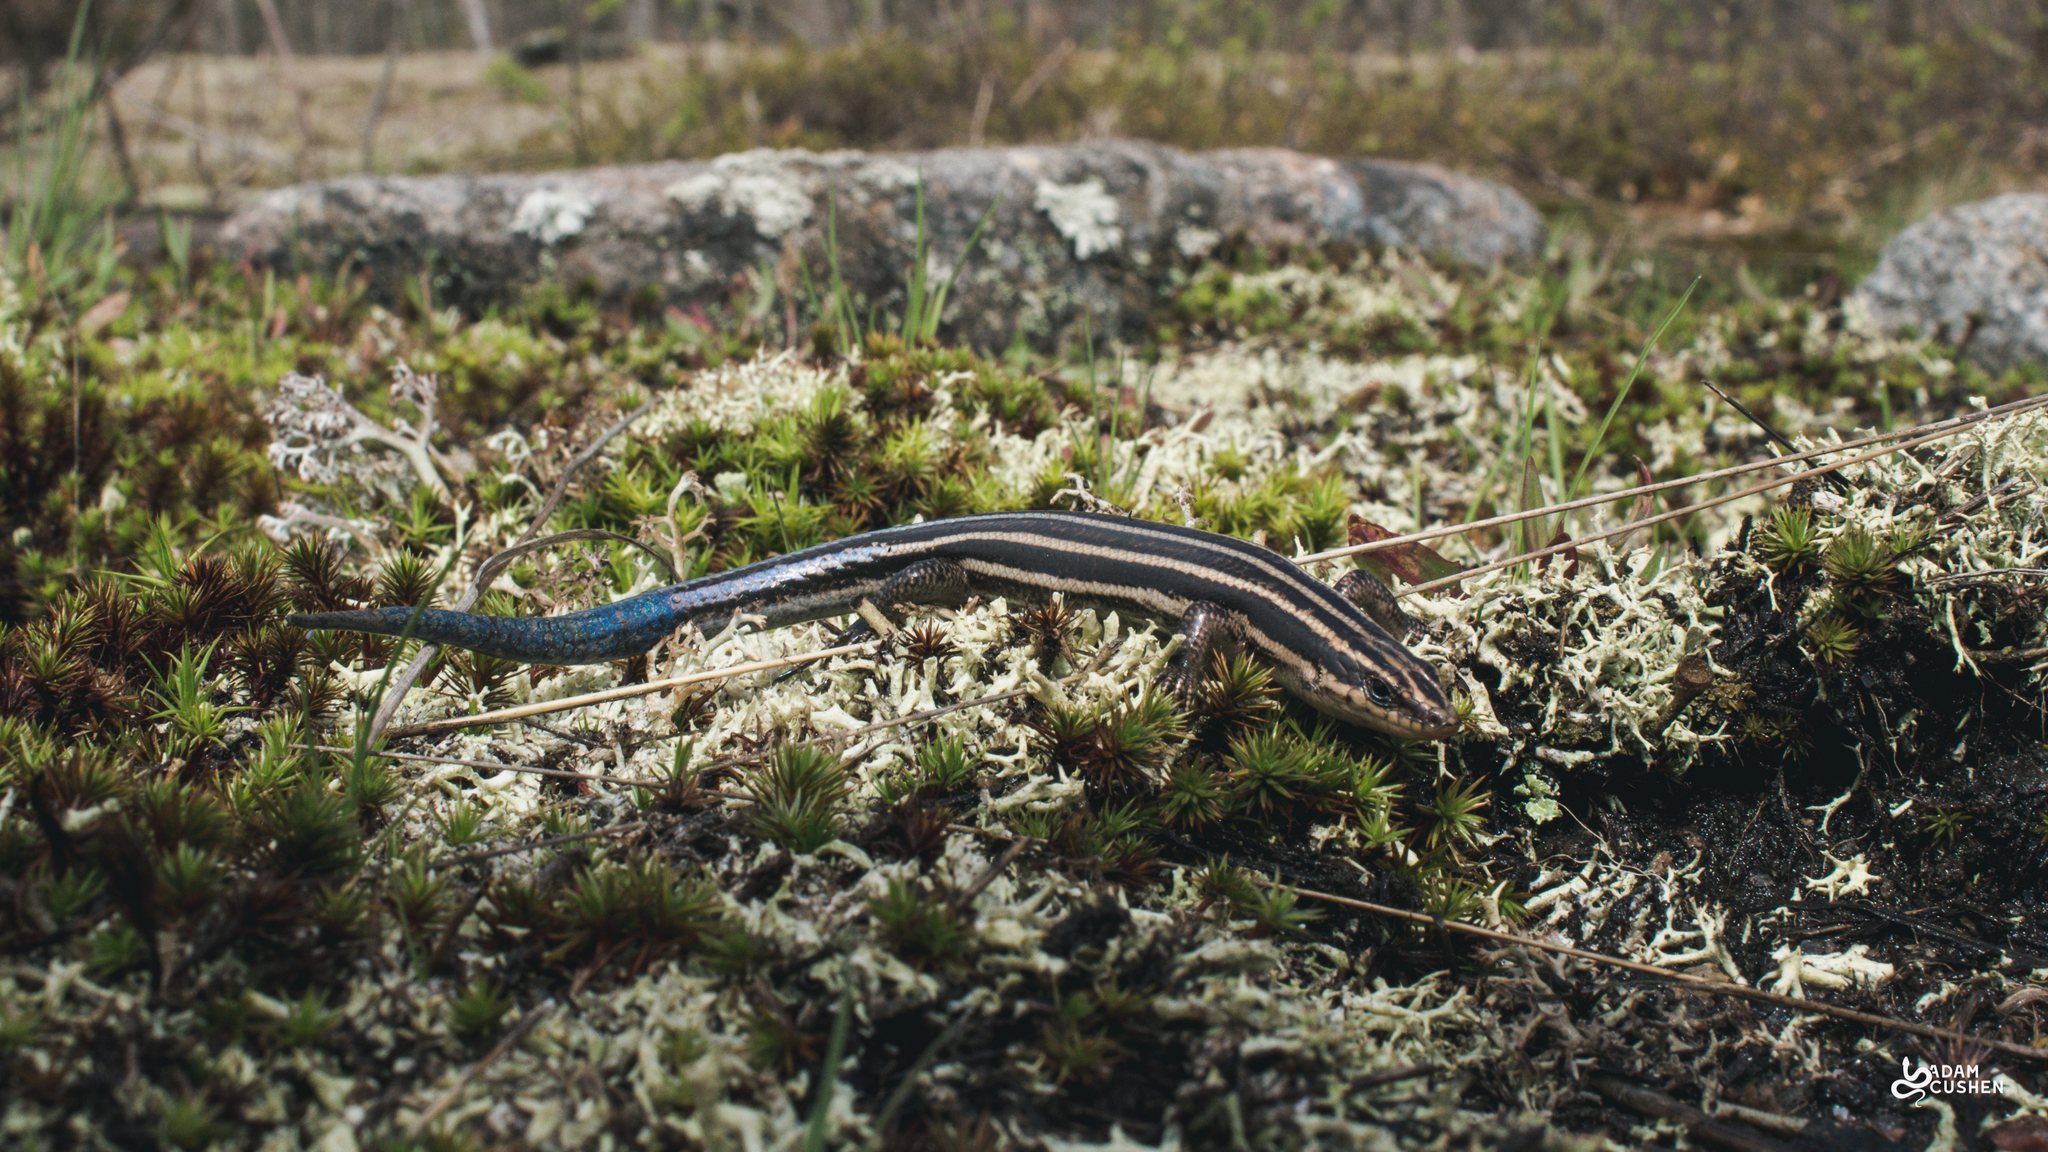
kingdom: Animalia
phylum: Chordata
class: Squamata
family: Scincidae
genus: Plestiodon
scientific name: Plestiodon fasciatus
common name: Five-lined skink
